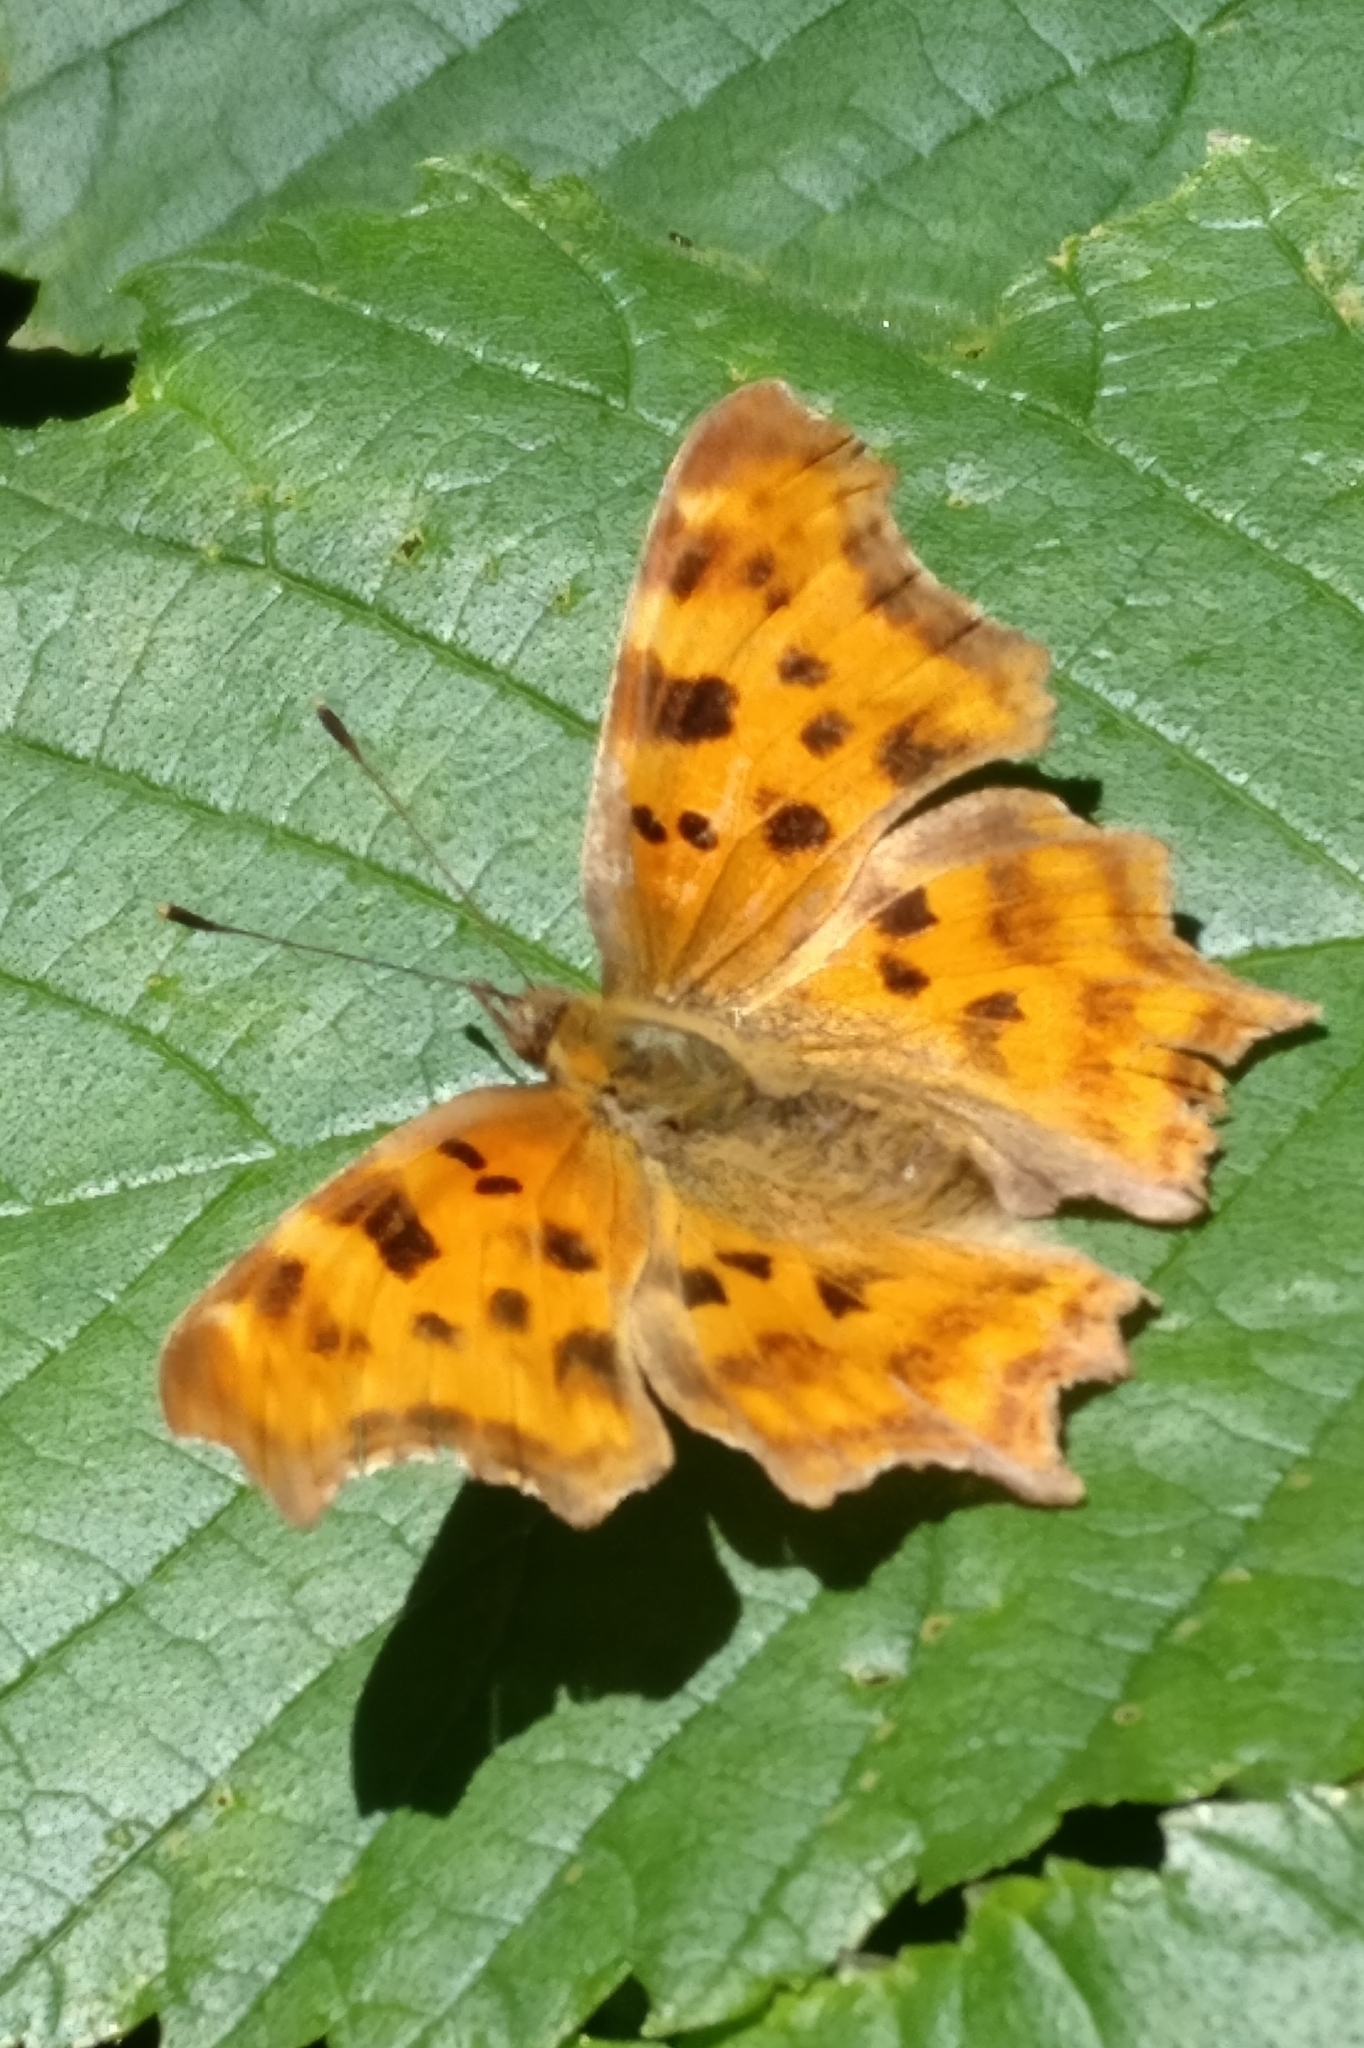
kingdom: Animalia
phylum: Arthropoda
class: Insecta
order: Lepidoptera
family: Nymphalidae
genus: Polygonia
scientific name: Polygonia c-album
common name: Comma
